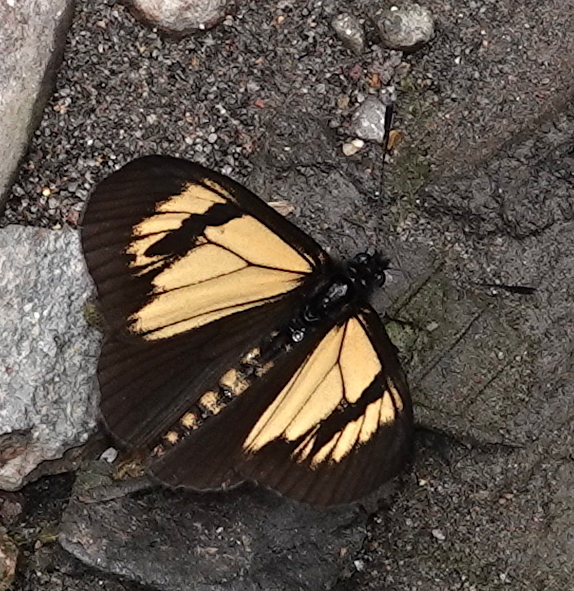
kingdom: Animalia
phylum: Arthropoda
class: Insecta
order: Lepidoptera
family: Nymphalidae
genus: Actinote
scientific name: Actinote alcione
